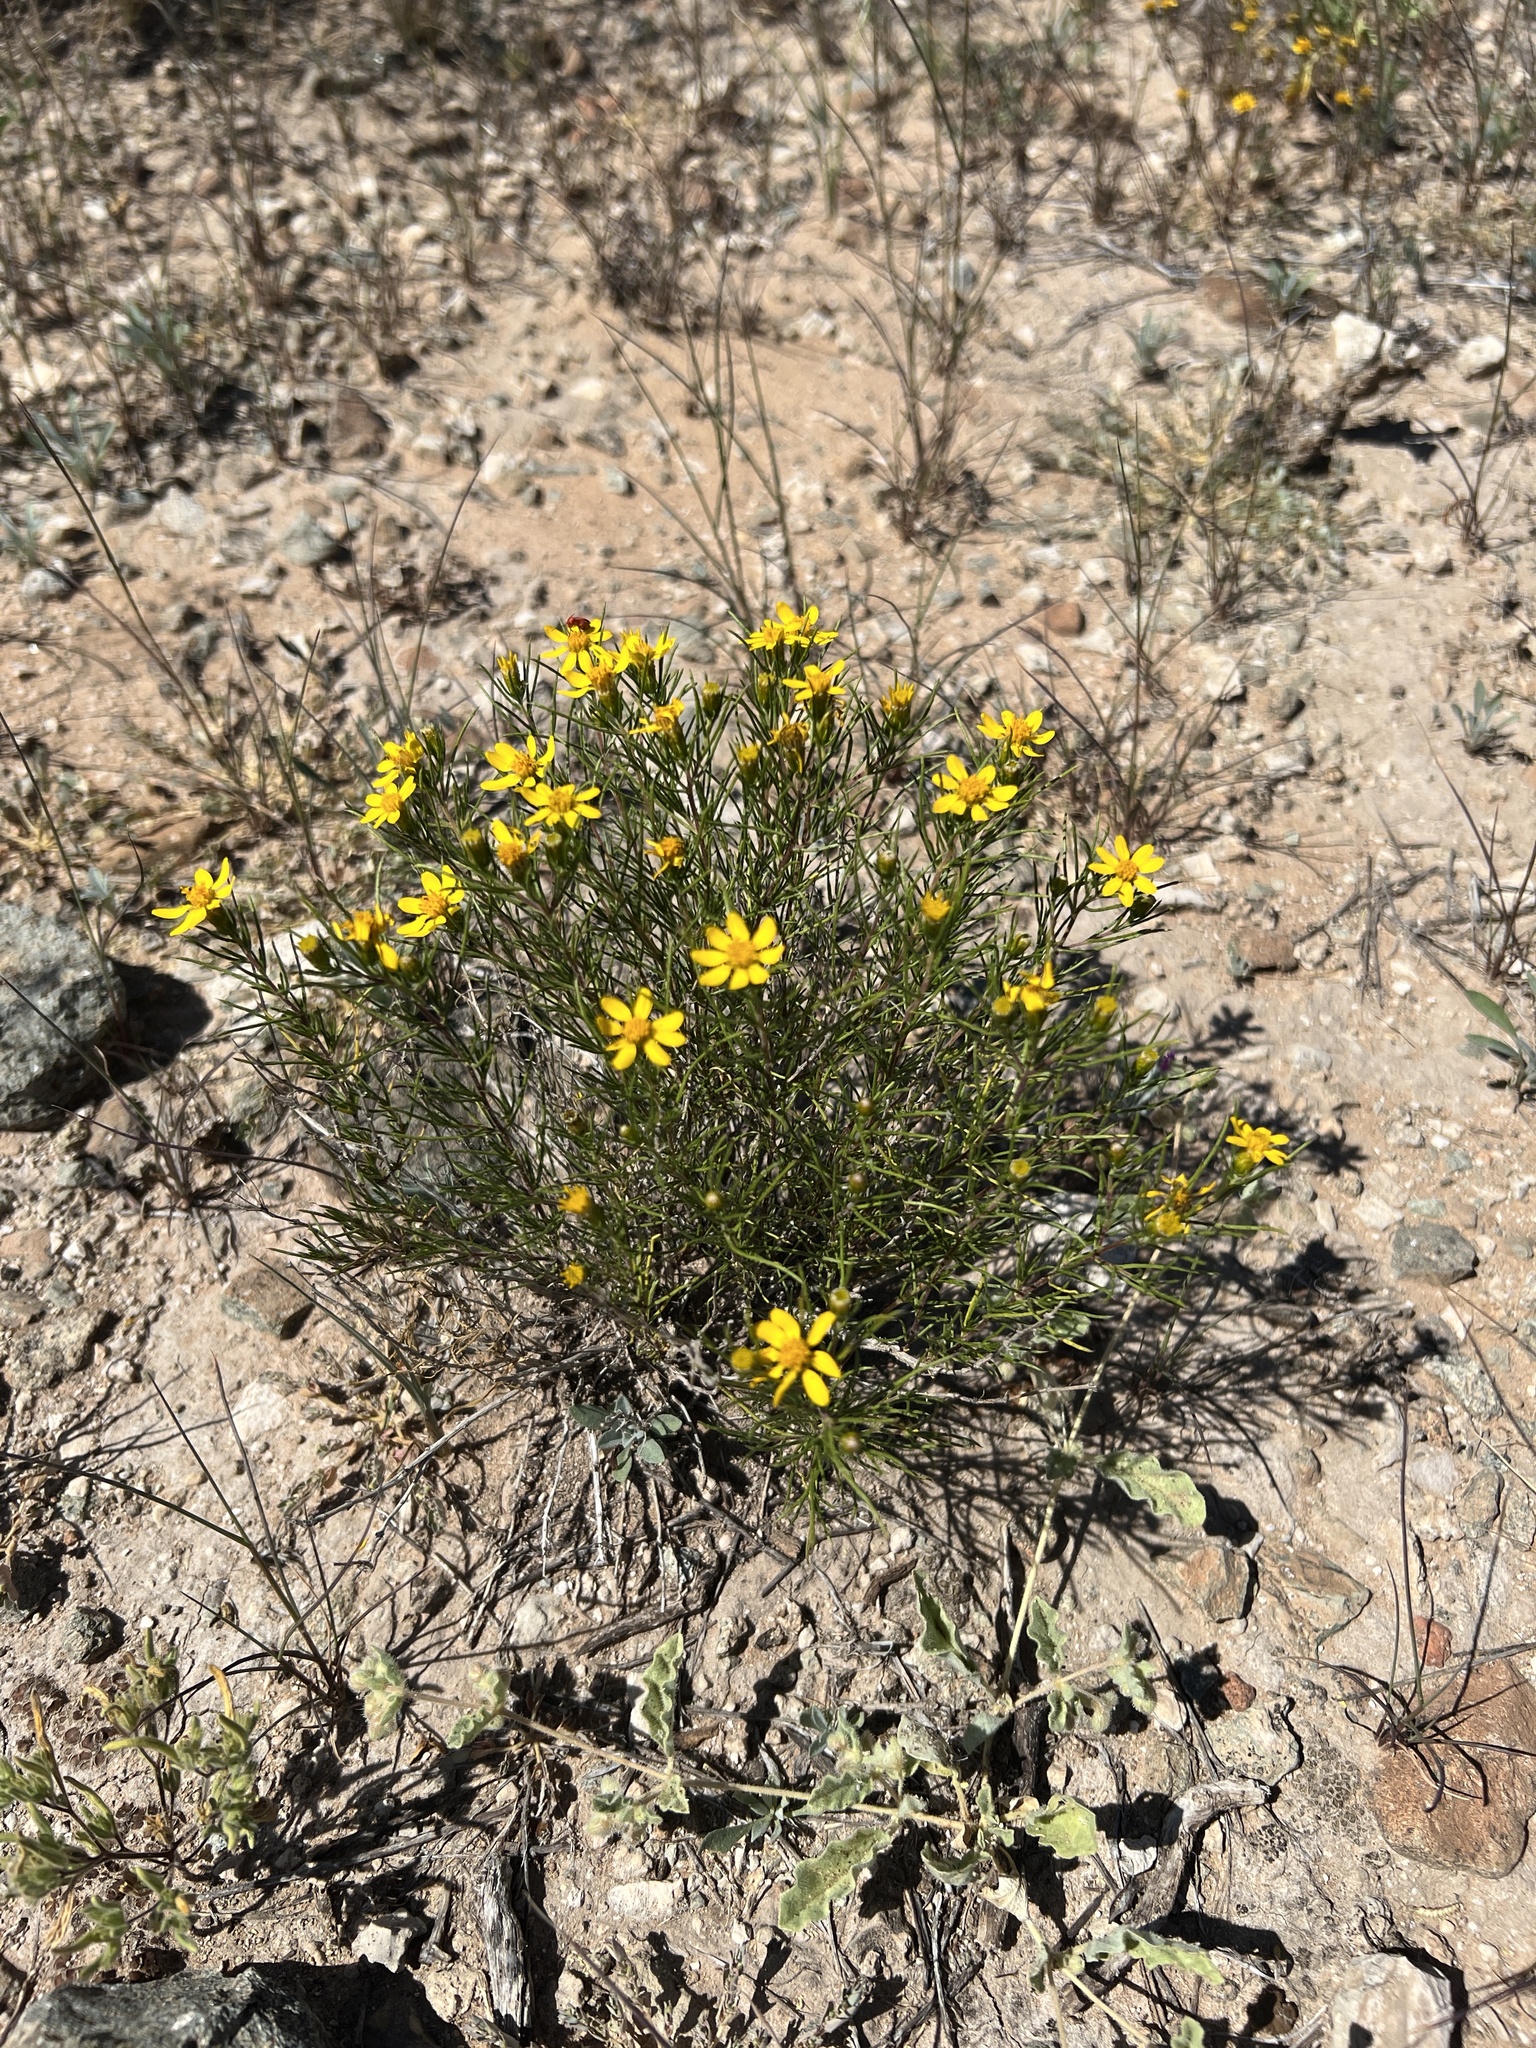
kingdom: Plantae
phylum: Tracheophyta
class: Magnoliopsida
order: Asterales
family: Asteraceae
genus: Thymophylla
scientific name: Thymophylla acerosa
